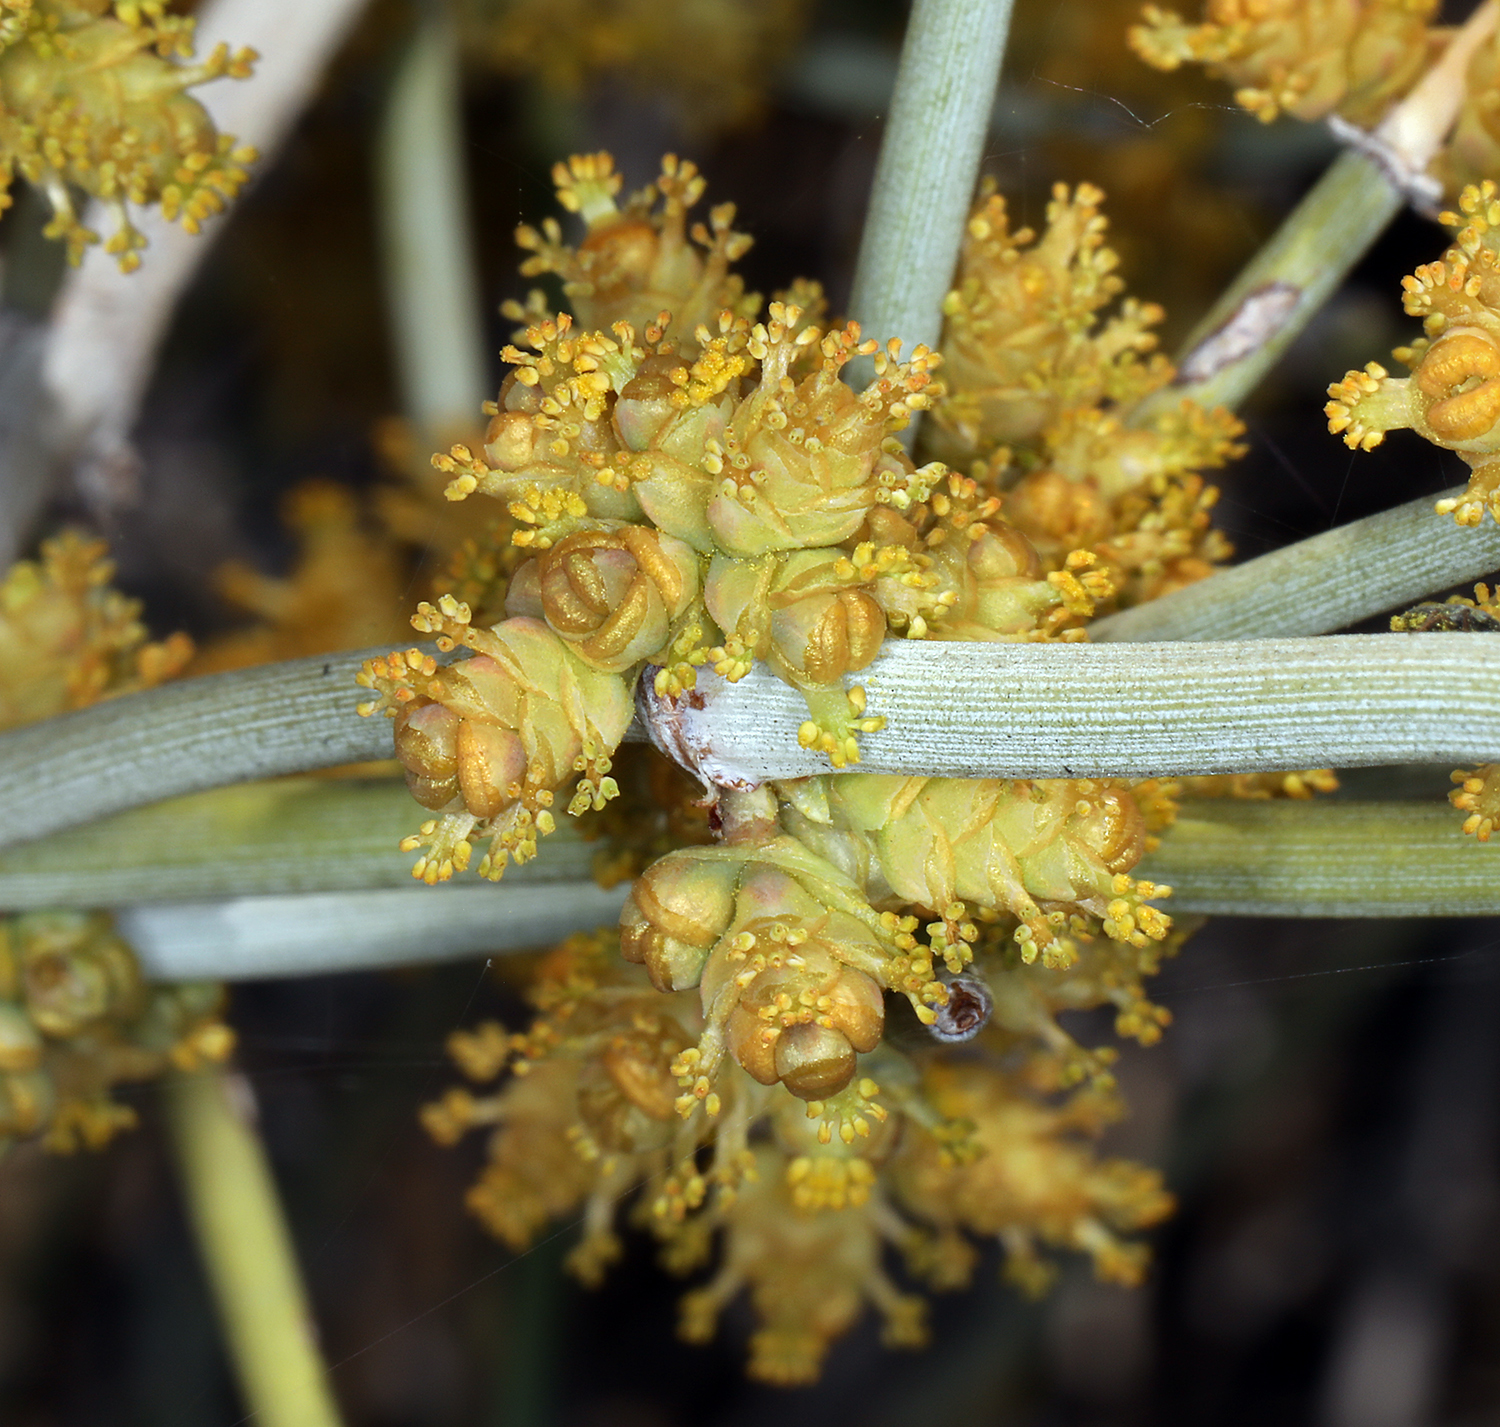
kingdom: Plantae
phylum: Tracheophyta
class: Gnetopsida
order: Ephedrales
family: Ephedraceae
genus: Ephedra
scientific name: Ephedra nevadensis
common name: Gray ephedra
